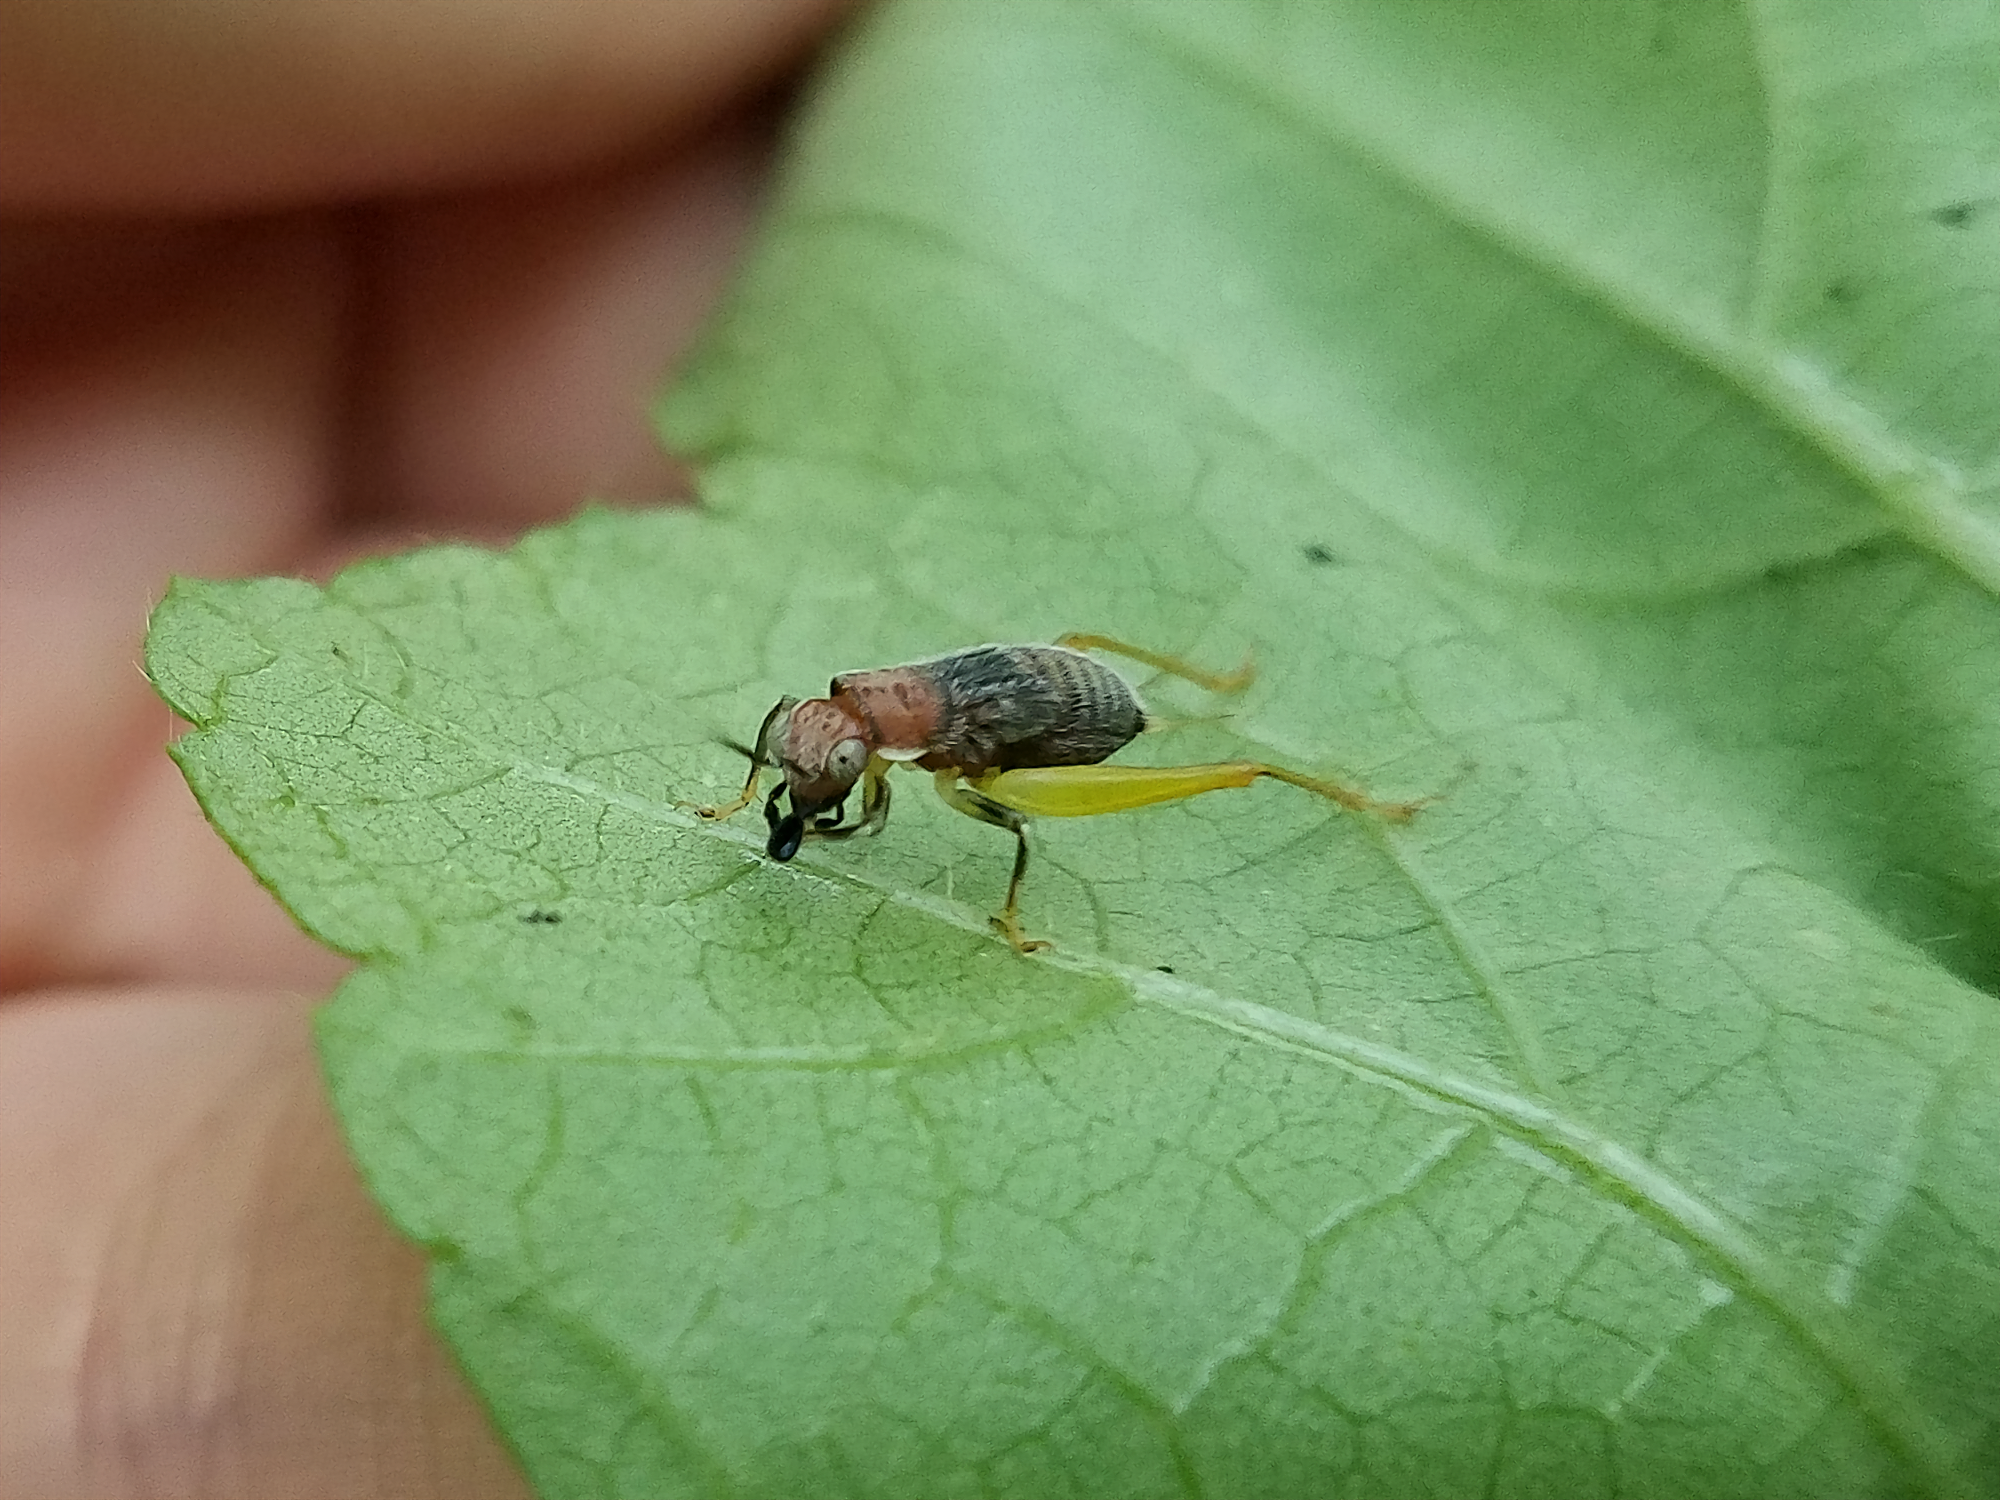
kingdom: Animalia
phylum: Arthropoda
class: Insecta
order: Orthoptera
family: Trigonidiidae
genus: Phyllopalpus
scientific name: Phyllopalpus pulchellus
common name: Handsome trig
